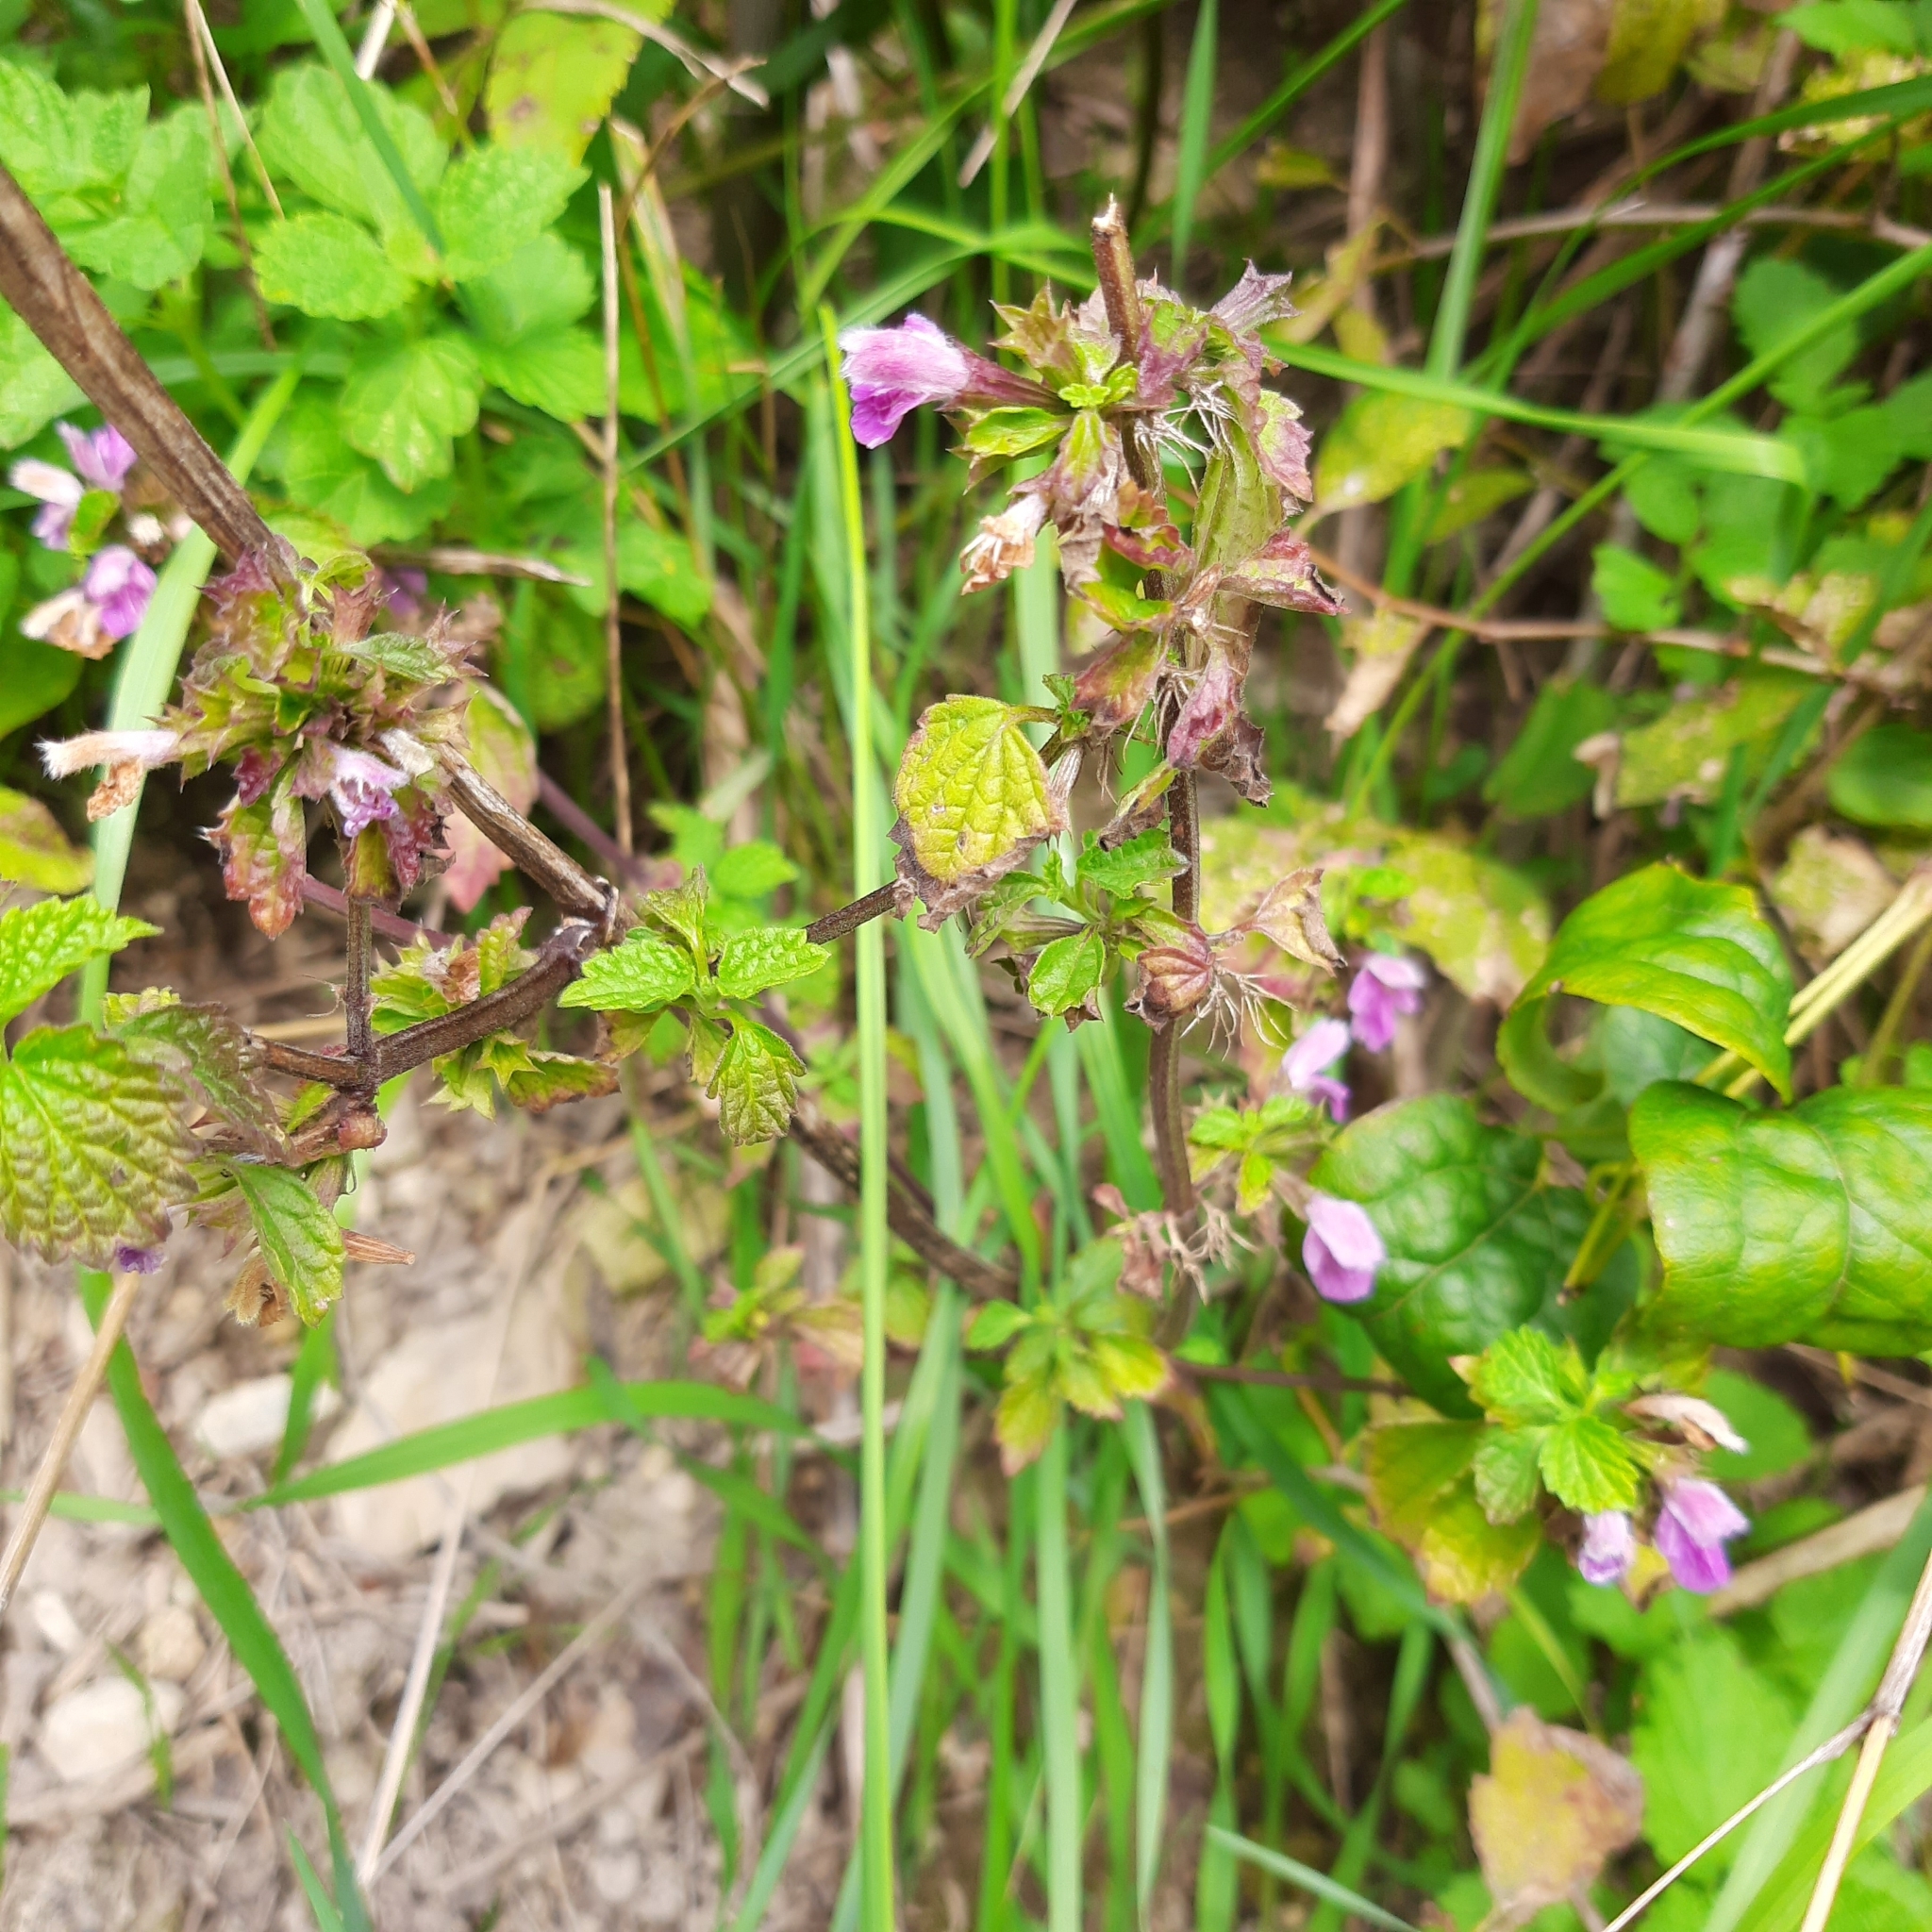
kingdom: Plantae
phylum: Tracheophyta
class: Magnoliopsida
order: Lamiales
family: Lamiaceae
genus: Ballota
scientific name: Ballota nigra
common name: Black horehound
